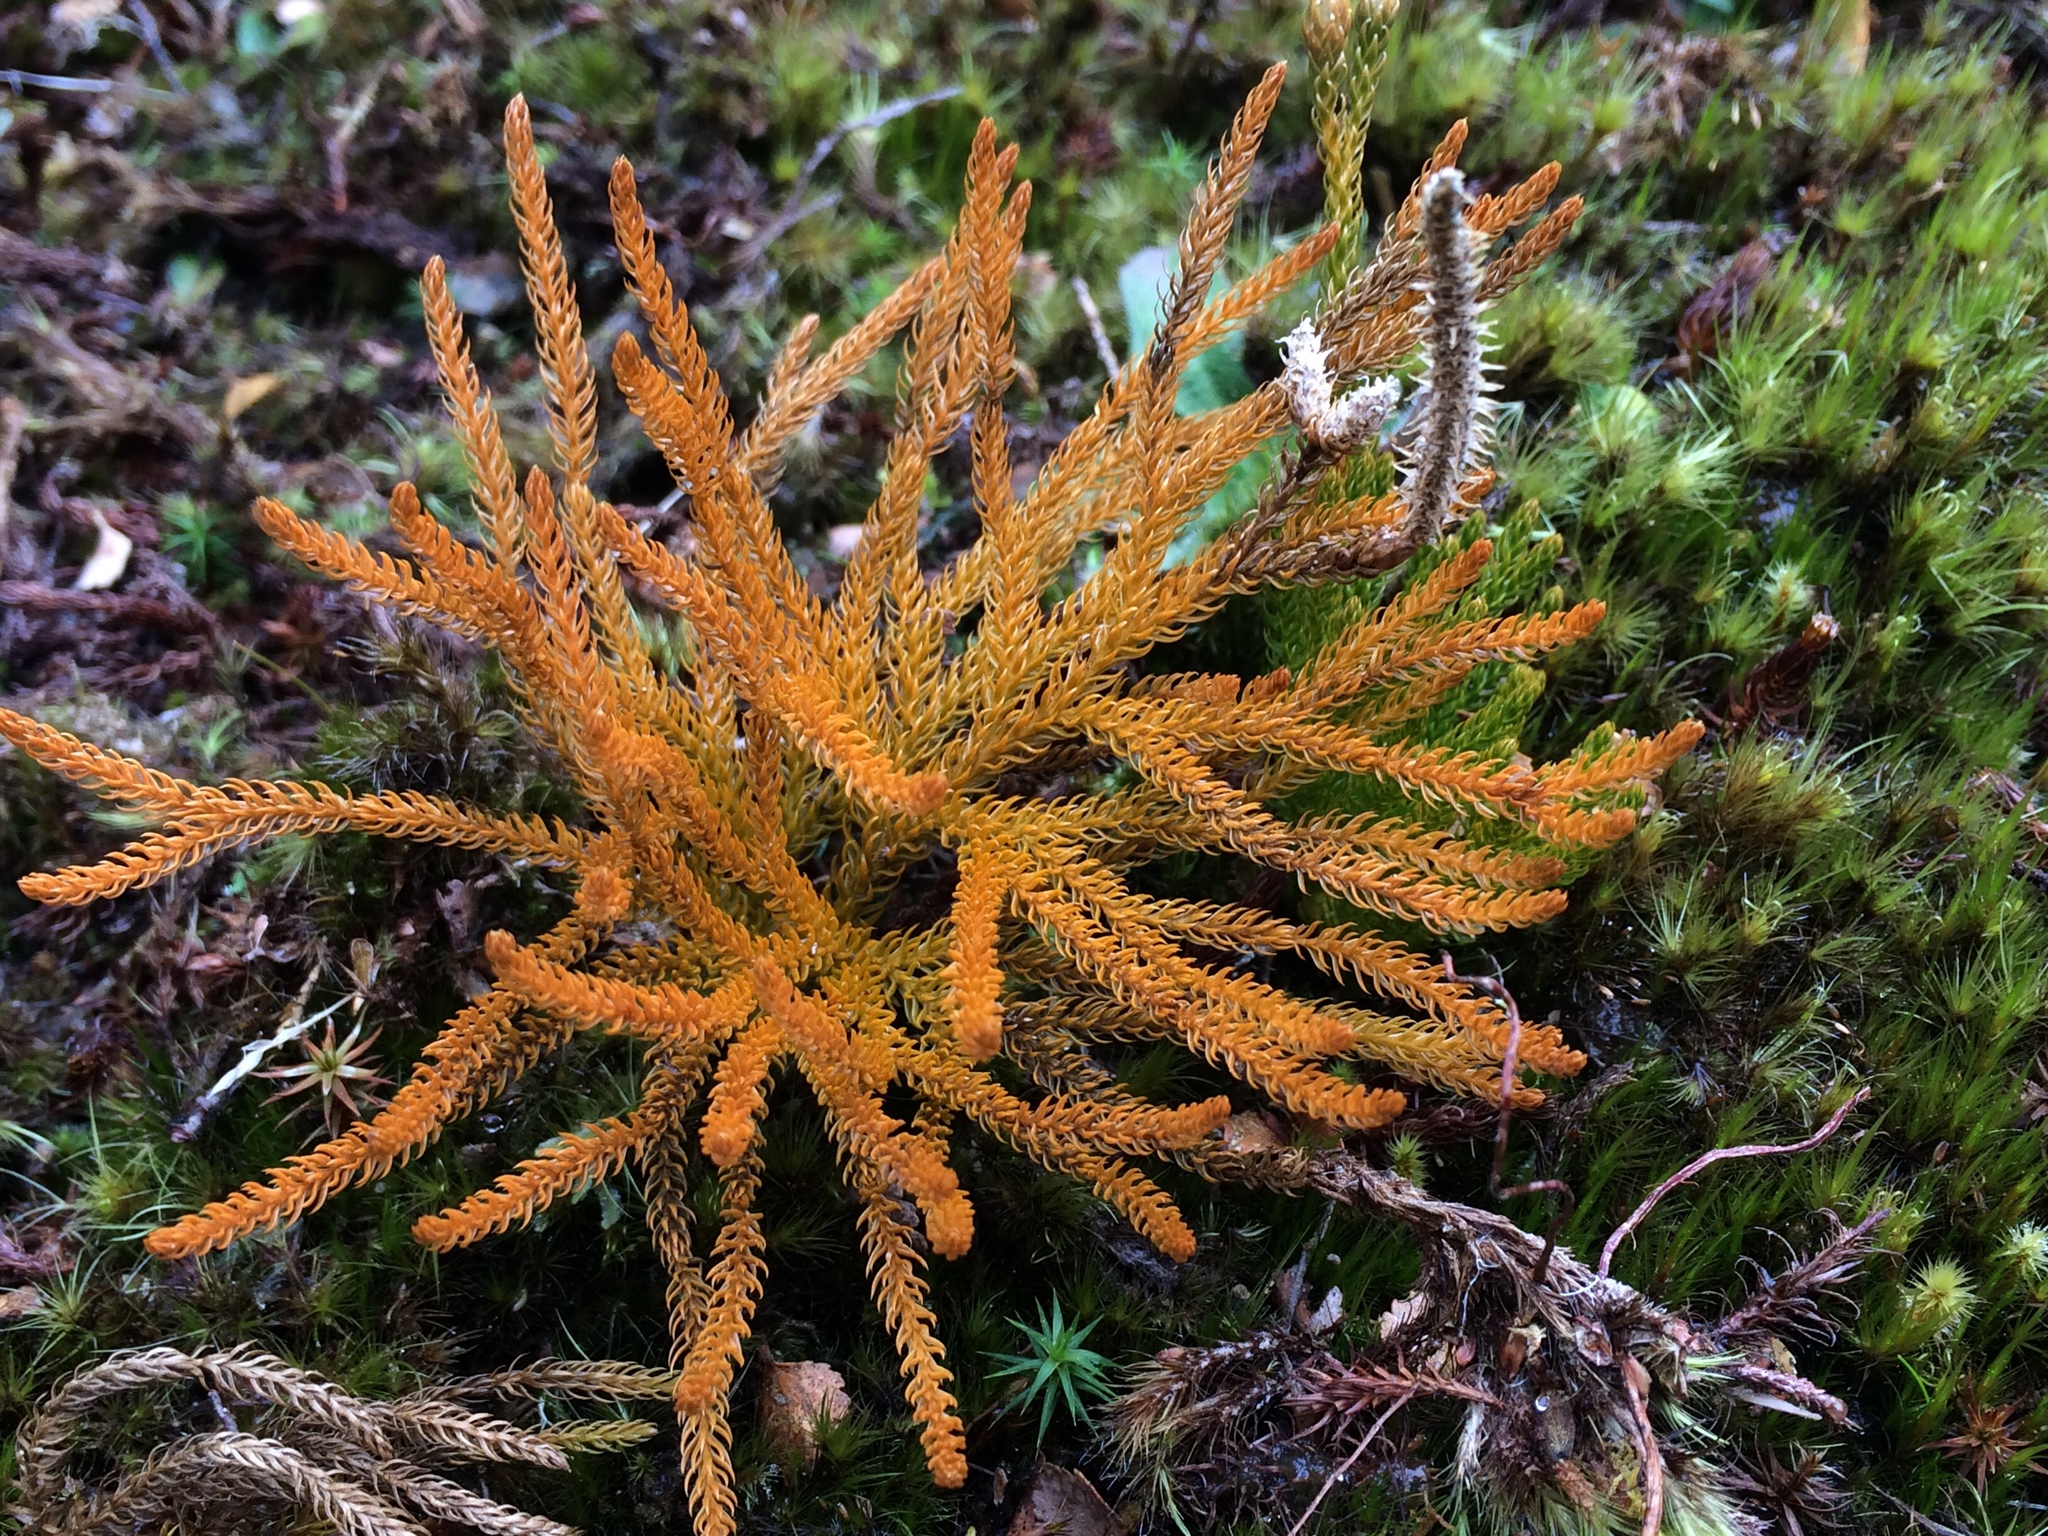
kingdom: Plantae
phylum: Tracheophyta
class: Lycopodiopsida
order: Lycopodiales
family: Lycopodiaceae
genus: Austrolycopodium
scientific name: Austrolycopodium fastigiatum
